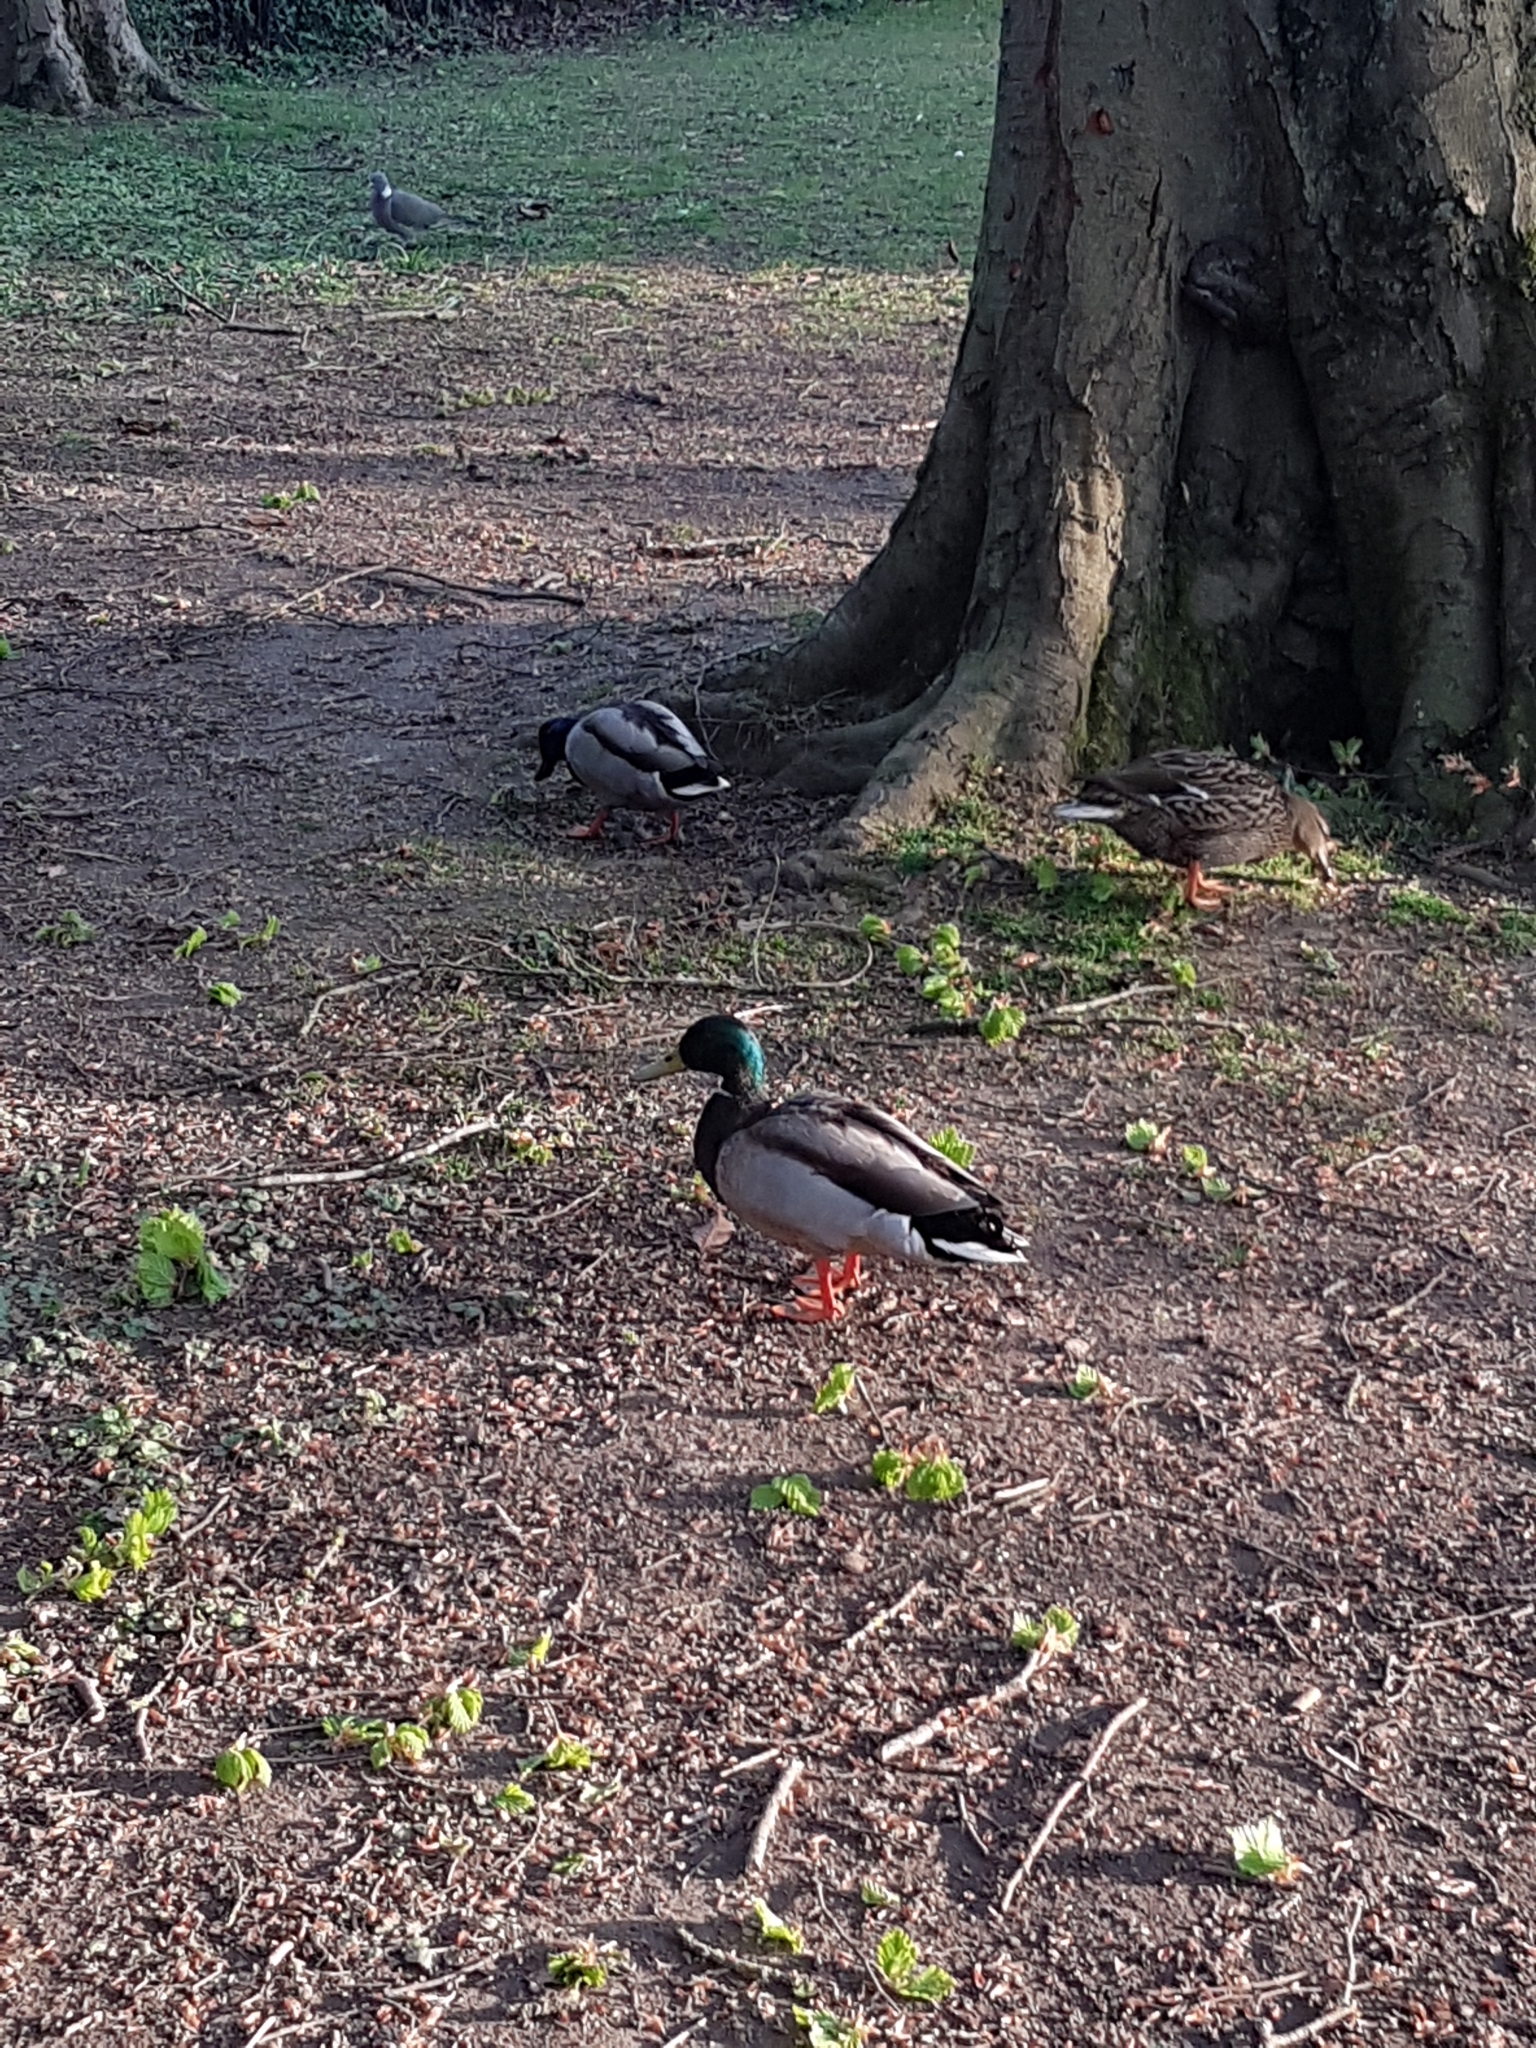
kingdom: Animalia
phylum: Chordata
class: Aves
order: Anseriformes
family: Anatidae
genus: Anas
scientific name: Anas platyrhynchos
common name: Mallard
